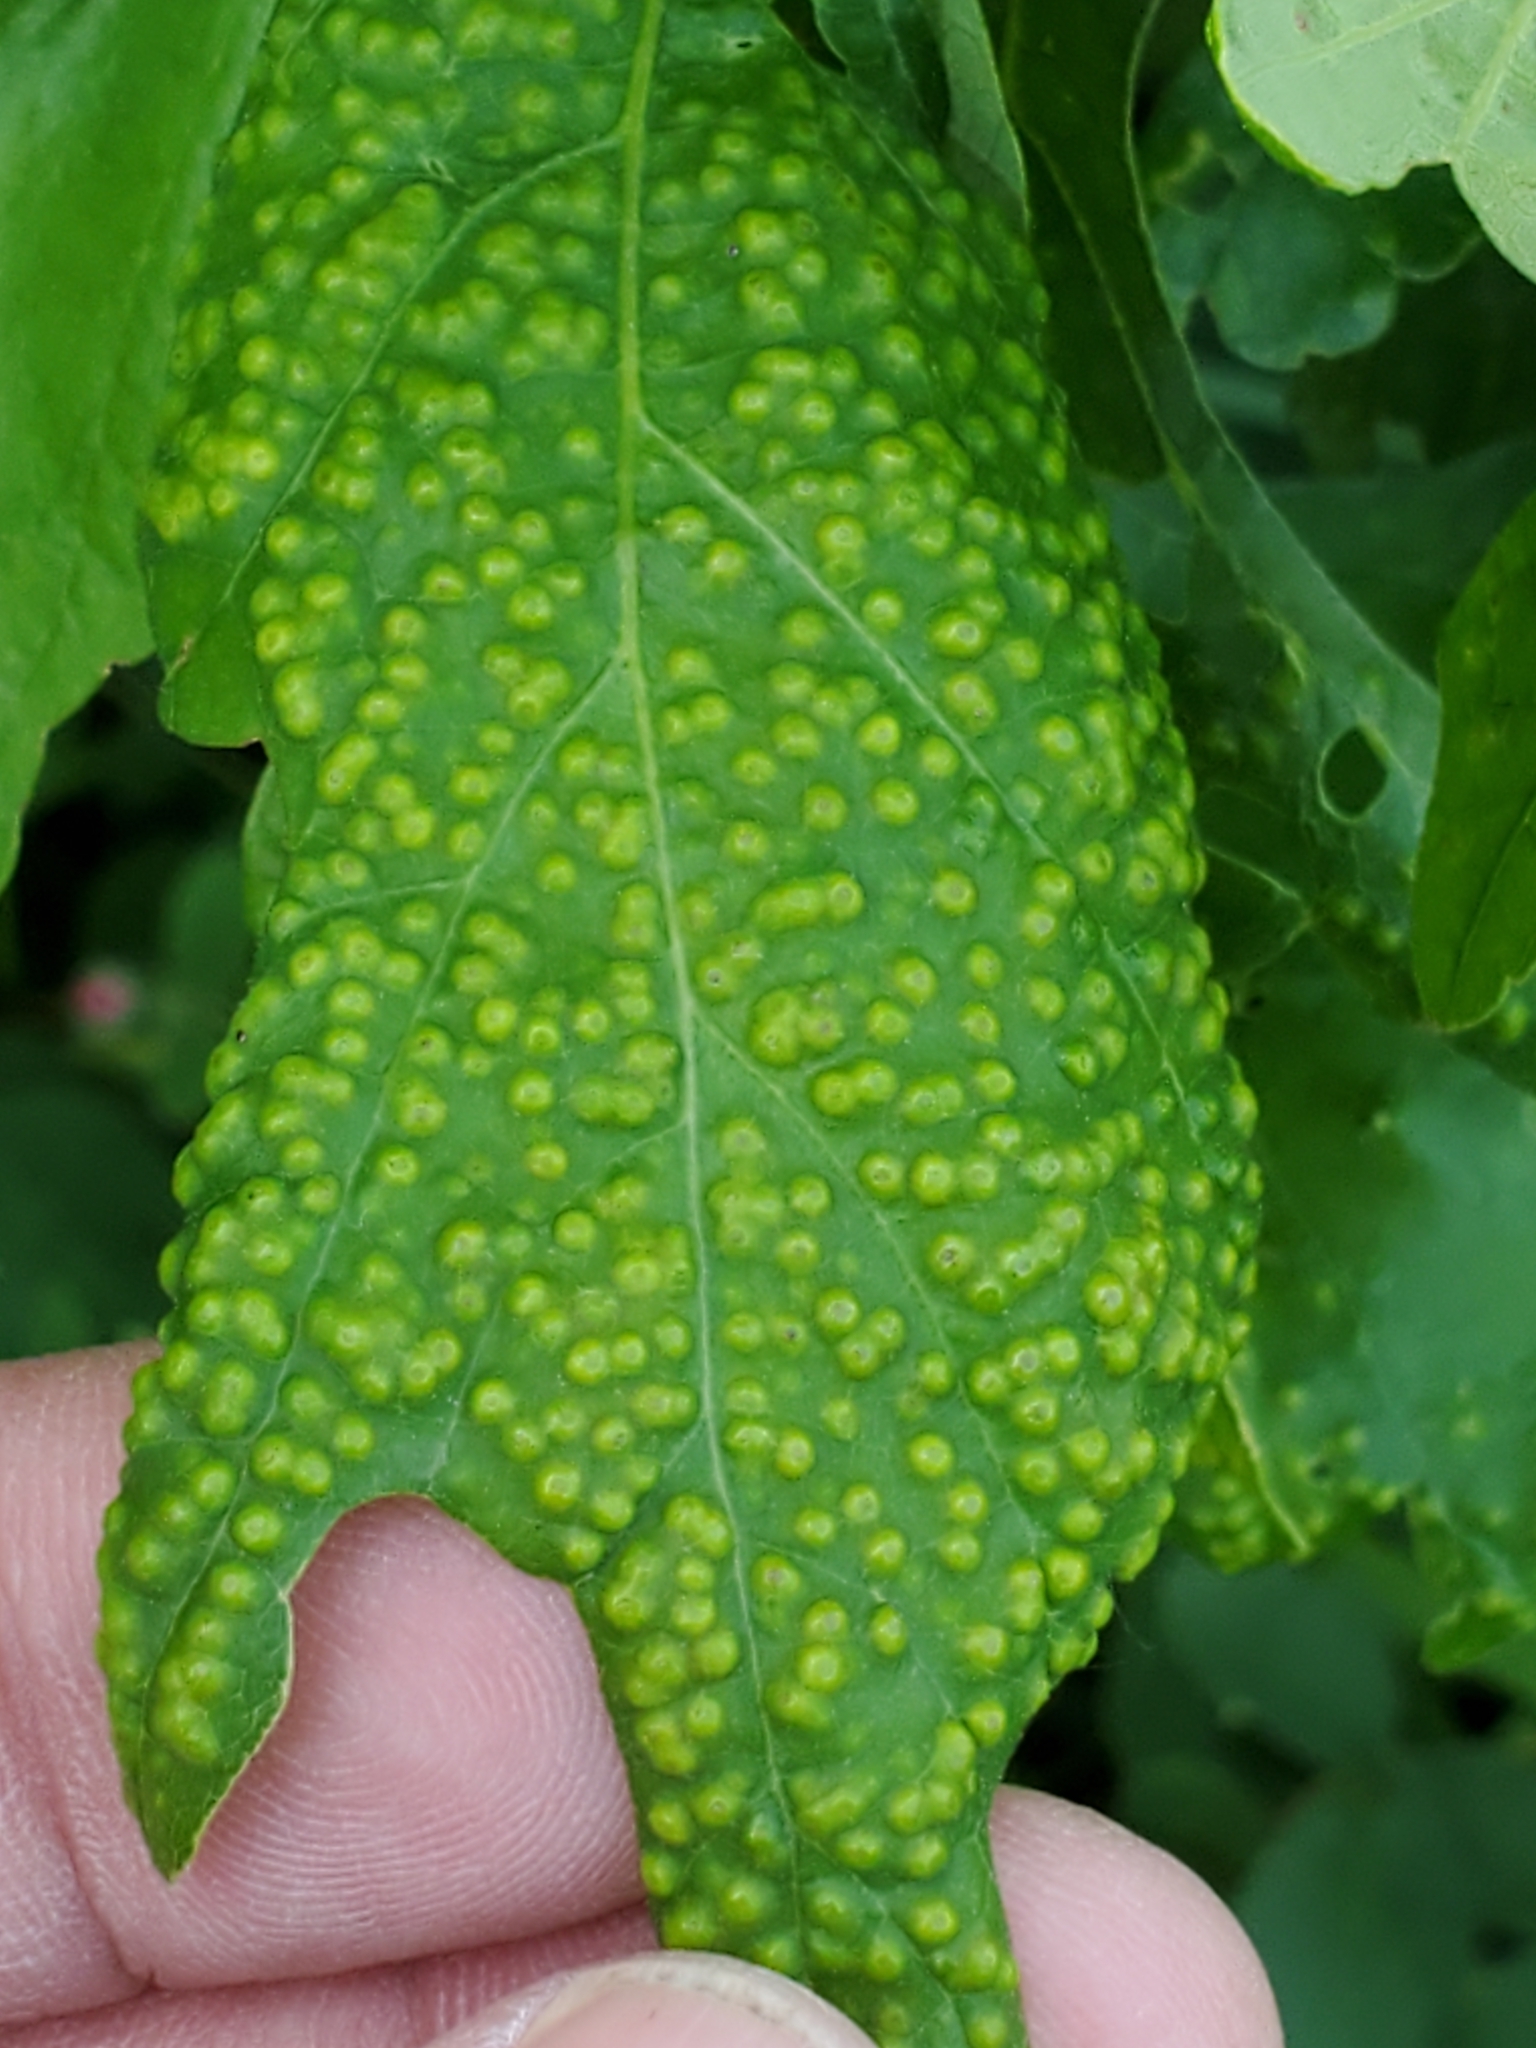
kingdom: Animalia
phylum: Arthropoda
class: Insecta
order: Hymenoptera
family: Cynipidae
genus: Neuroterus
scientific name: Neuroterus saltarius
